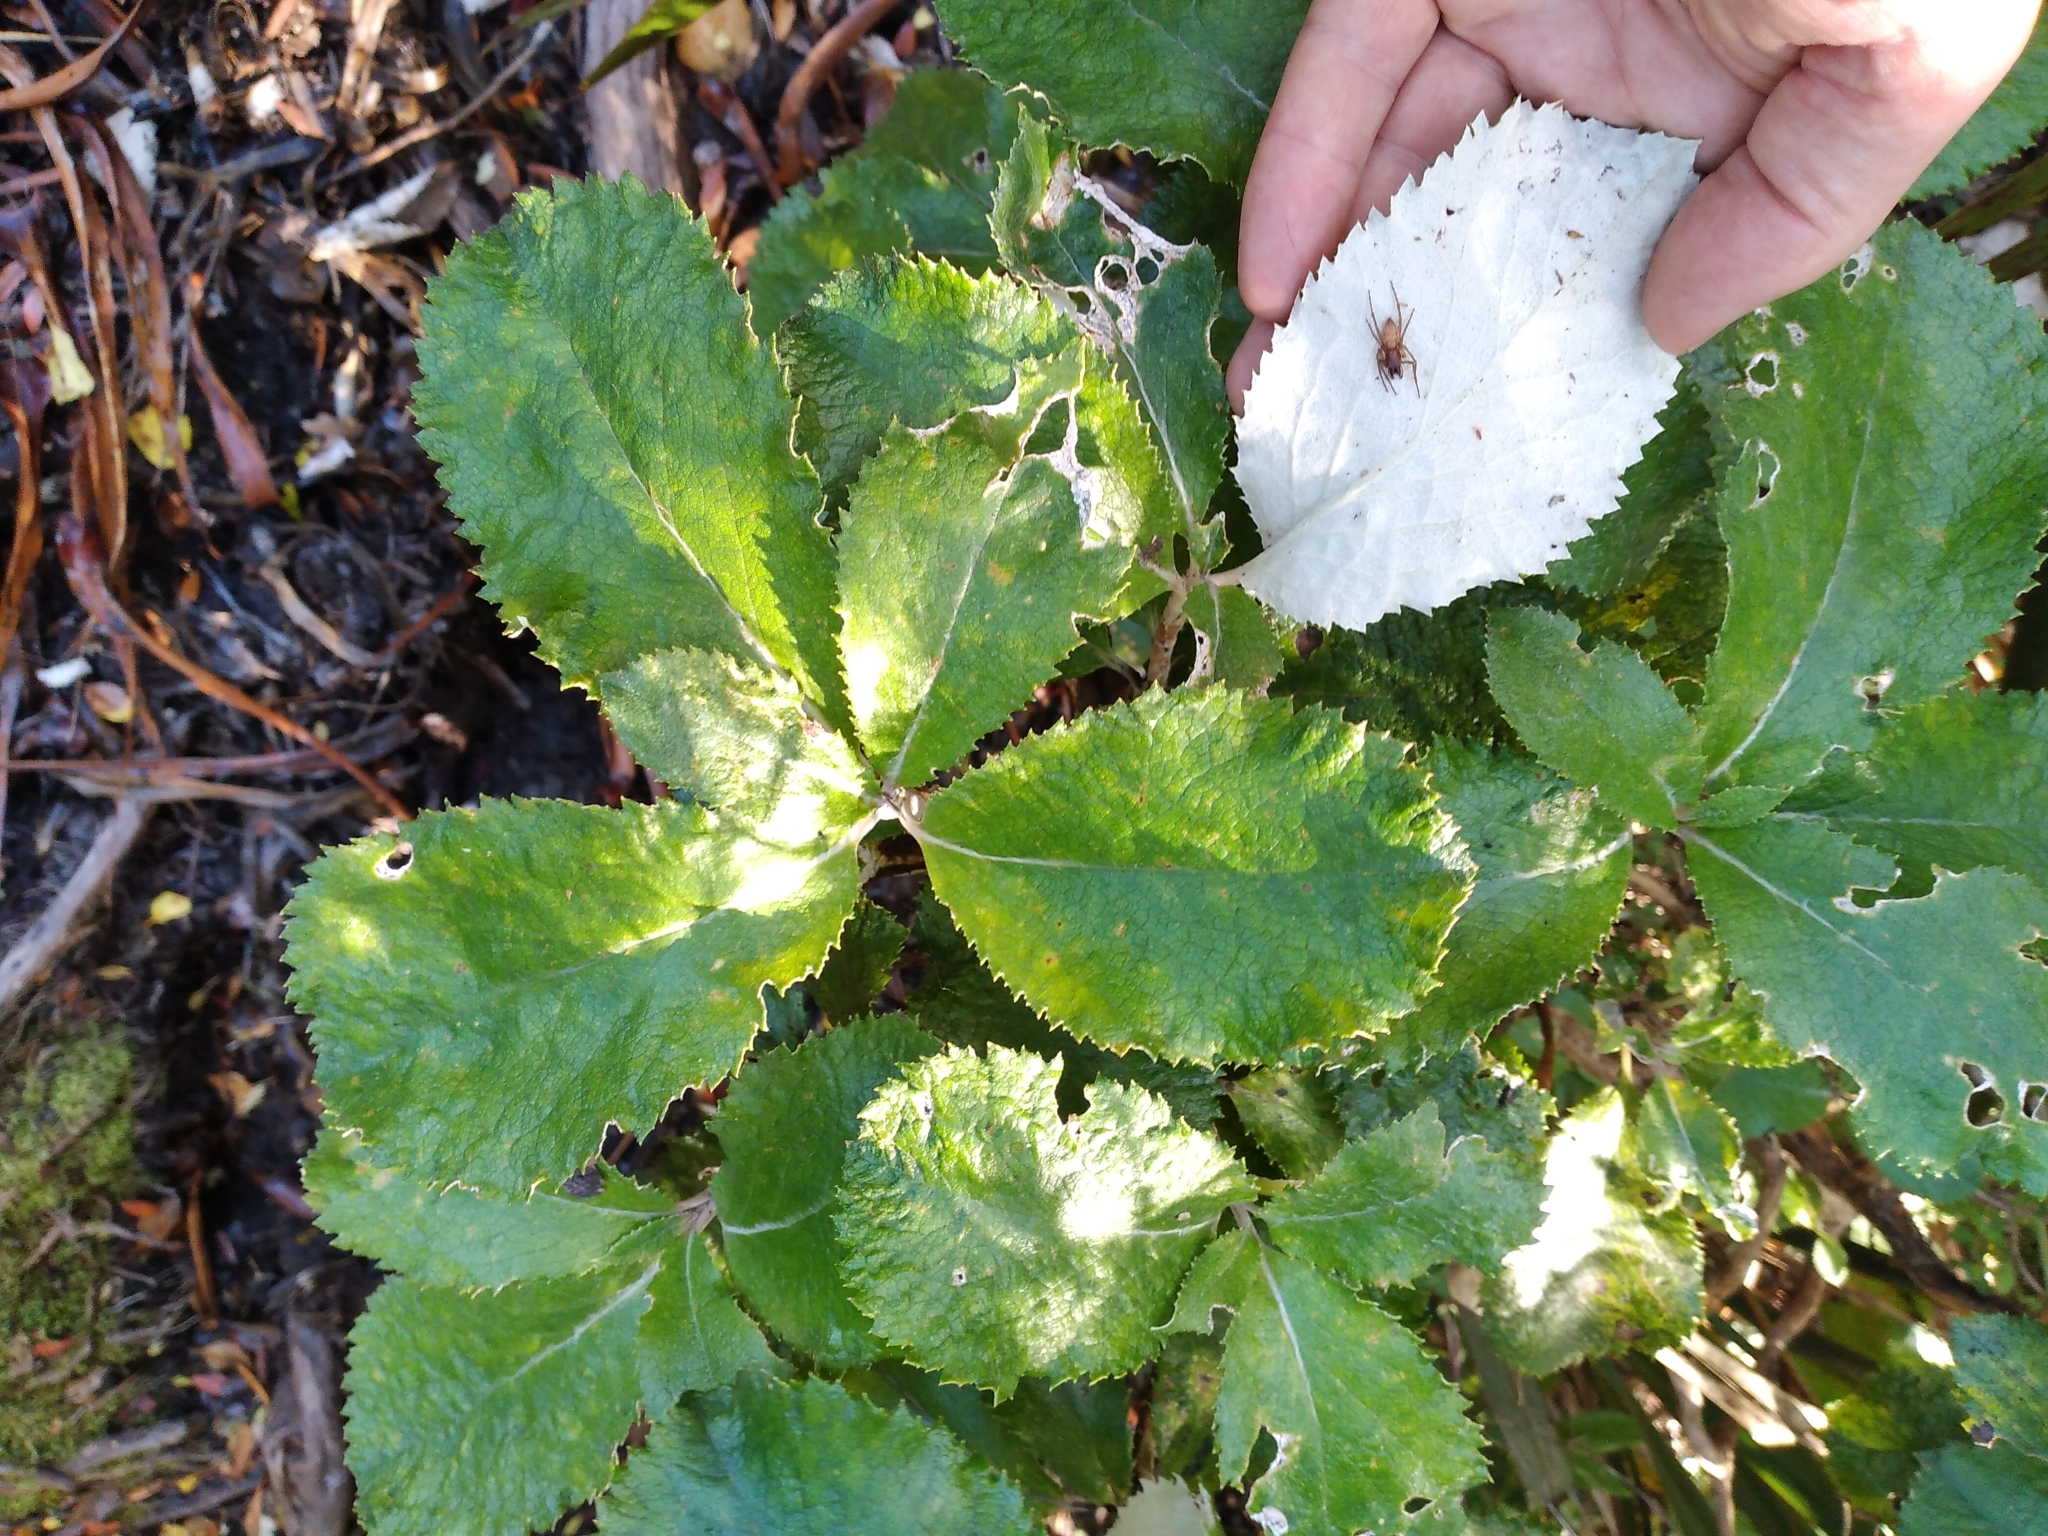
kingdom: Plantae
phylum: Tracheophyta
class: Magnoliopsida
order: Asterales
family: Asteraceae
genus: Macrolearia
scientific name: Macrolearia colensoi
